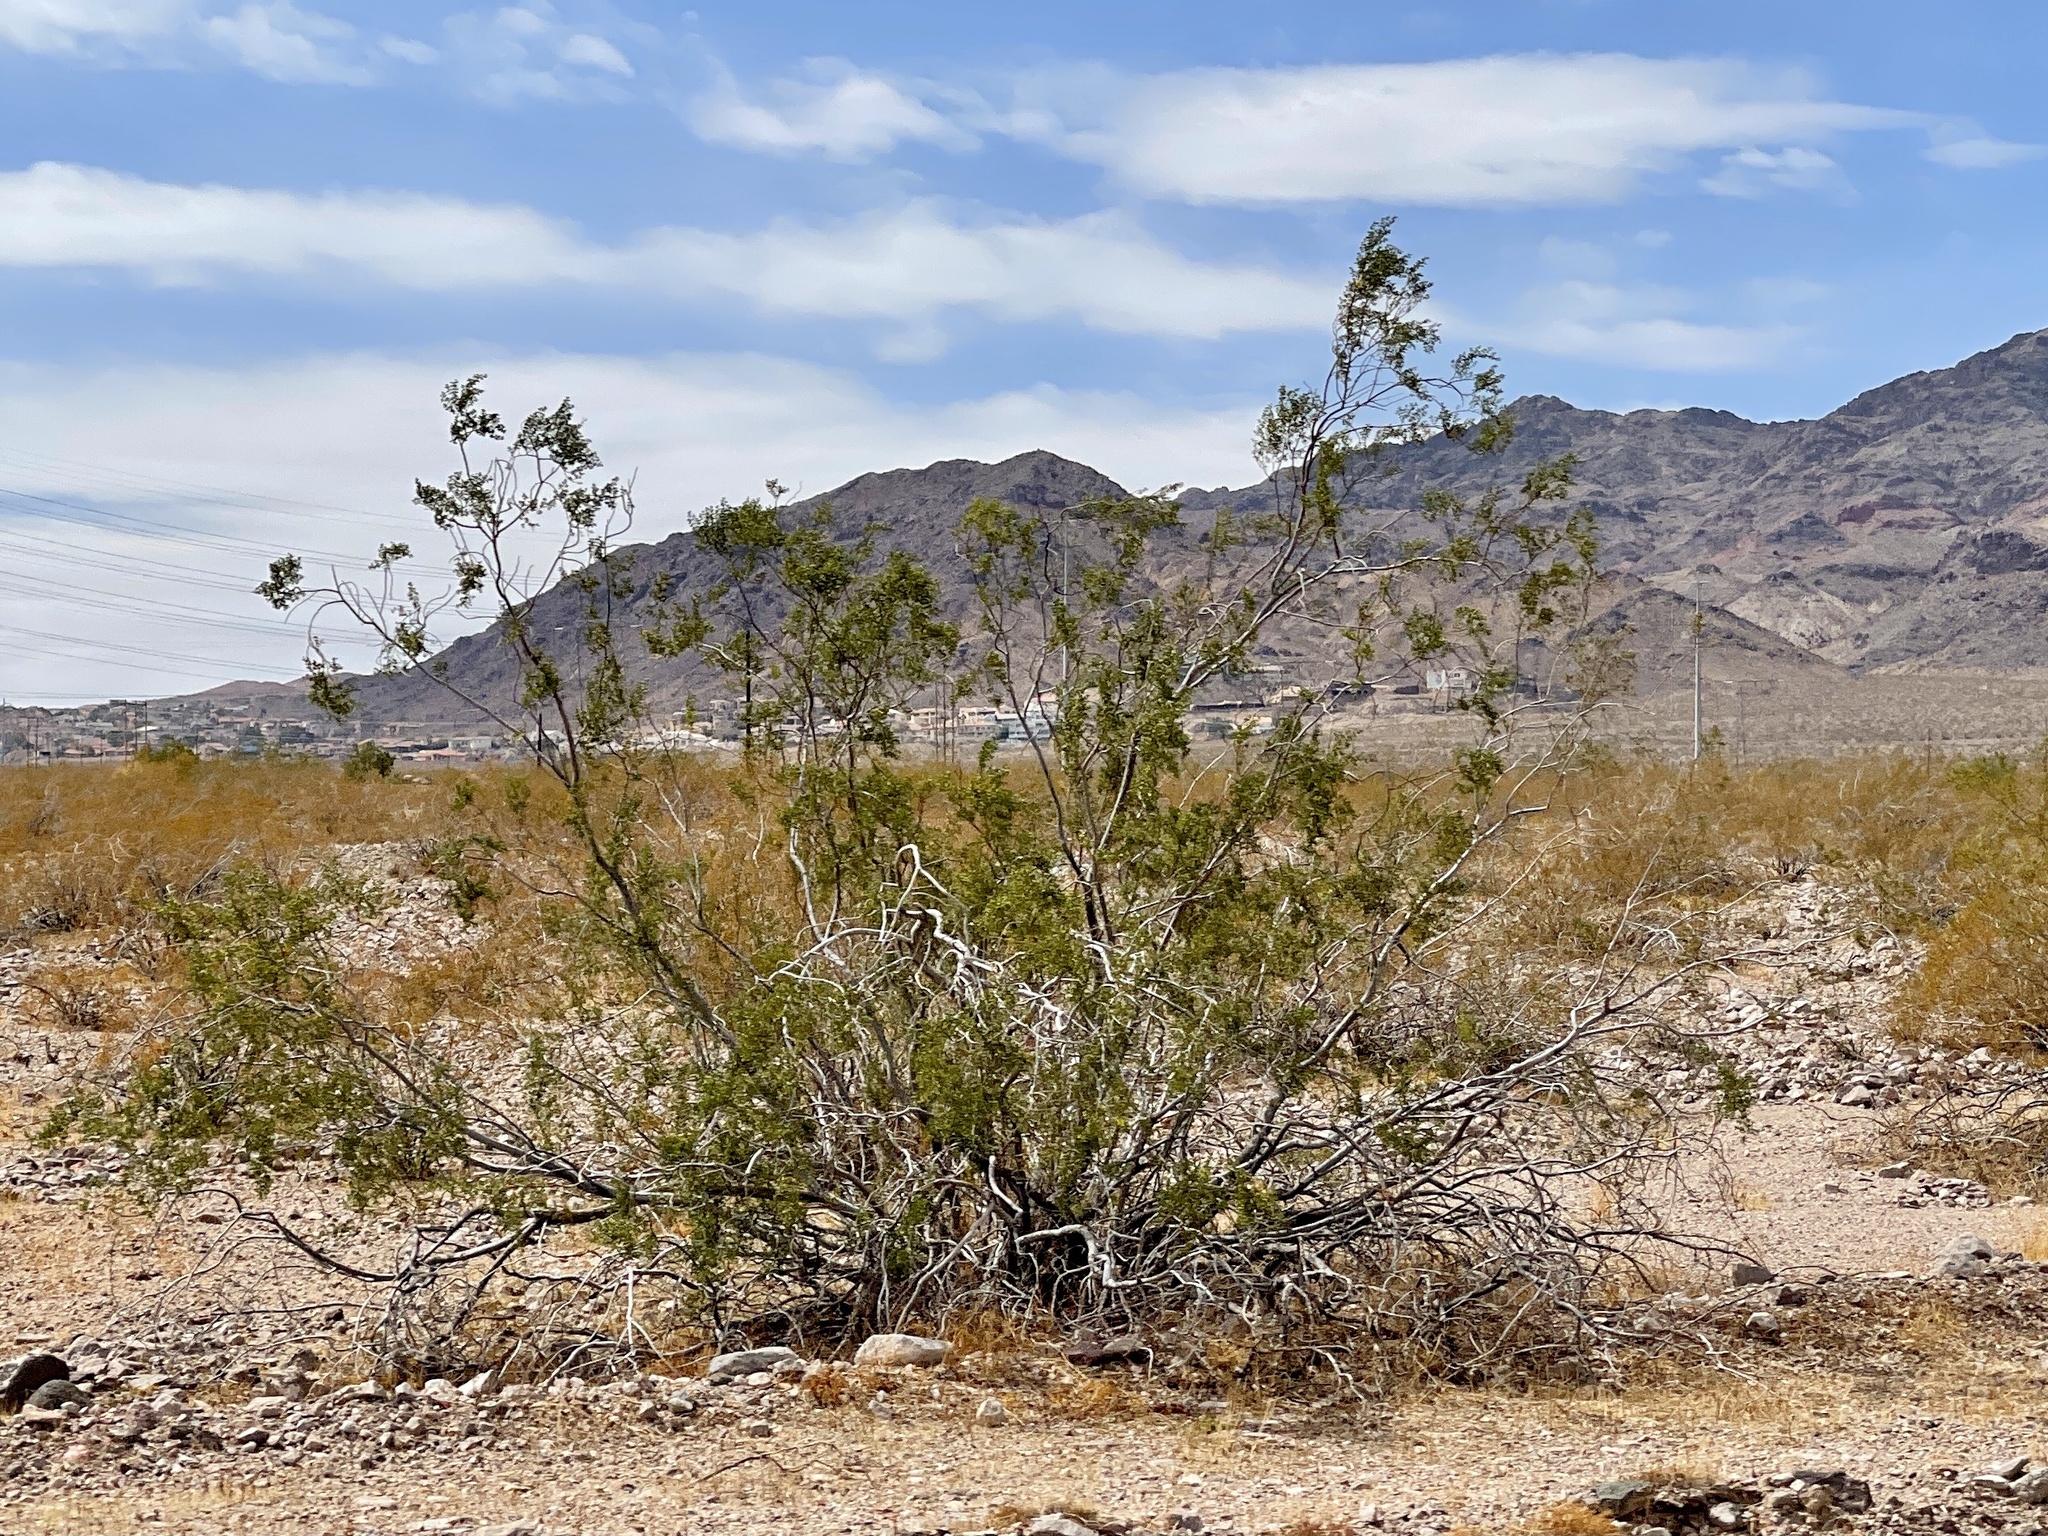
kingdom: Plantae
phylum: Tracheophyta
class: Magnoliopsida
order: Zygophyllales
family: Zygophyllaceae
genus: Larrea
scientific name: Larrea tridentata
